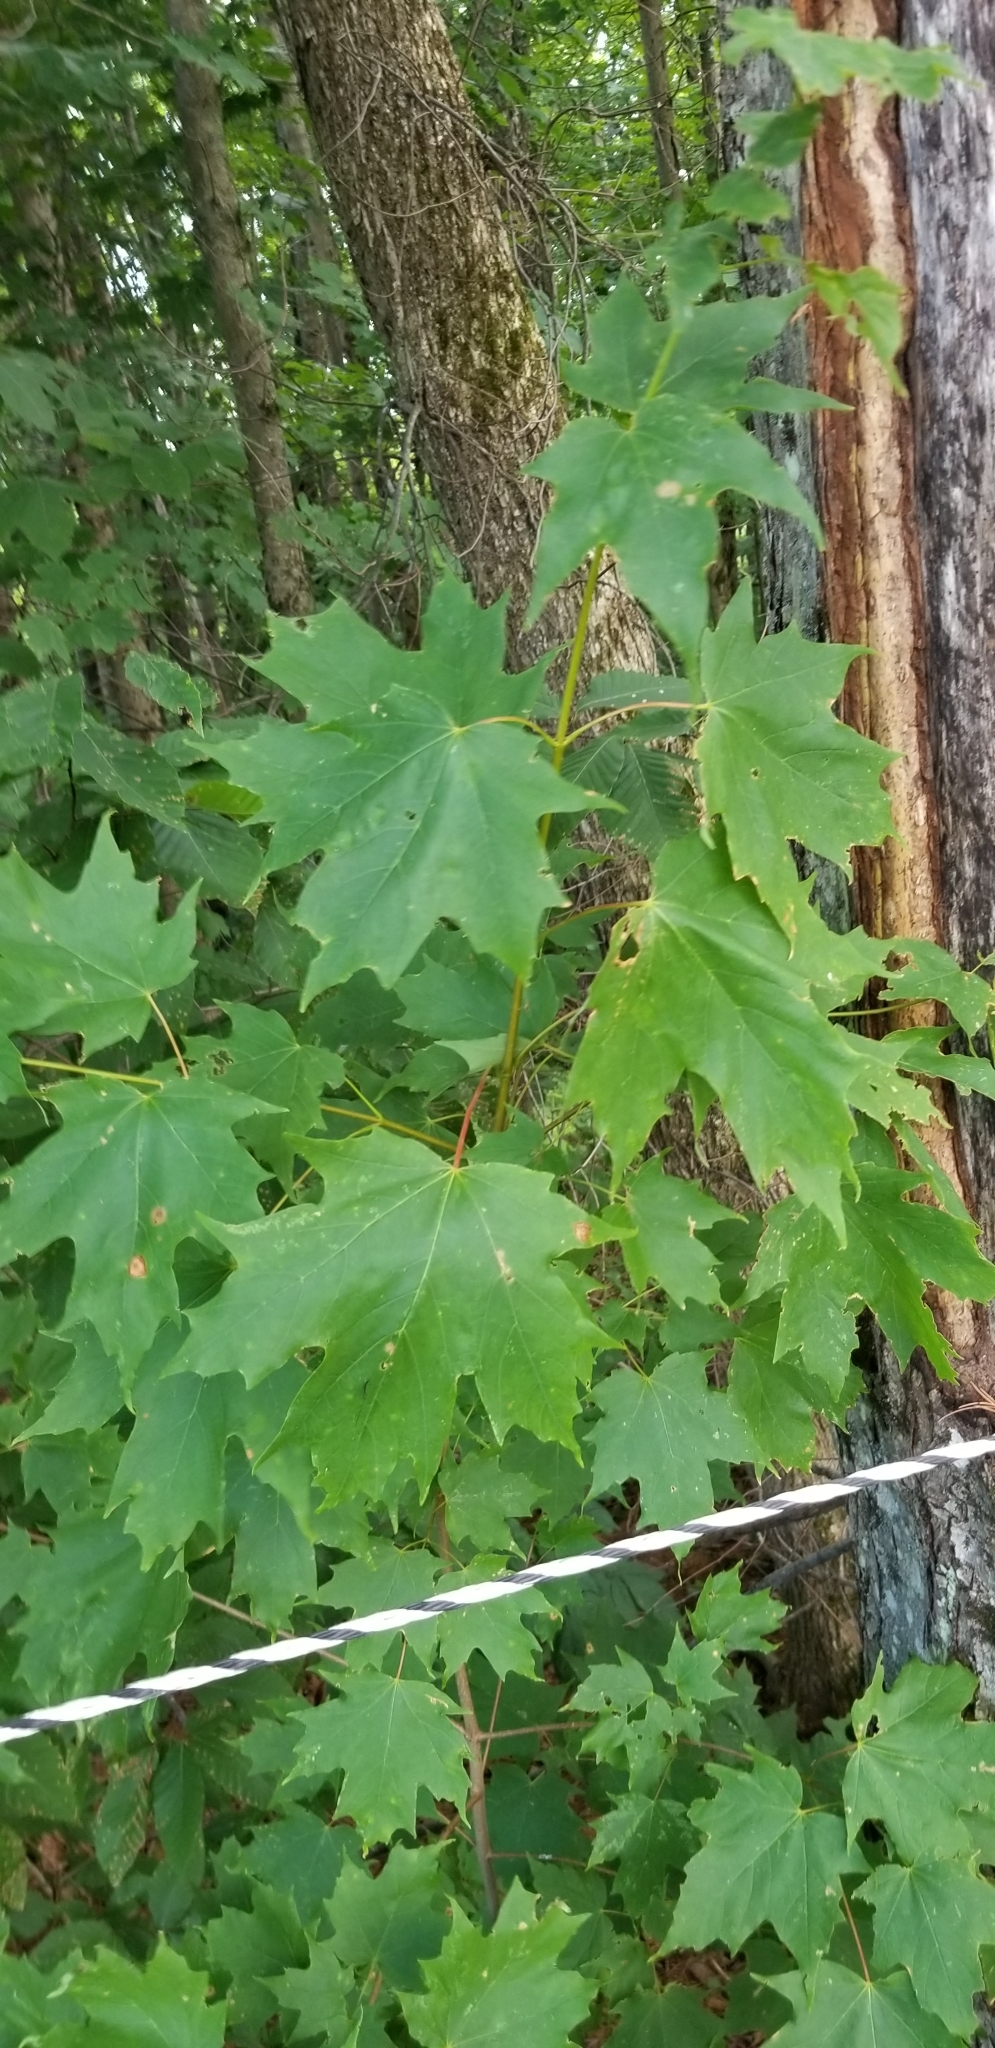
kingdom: Plantae
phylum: Tracheophyta
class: Magnoliopsida
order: Sapindales
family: Sapindaceae
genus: Acer
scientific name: Acer saccharum
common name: Sugar maple
